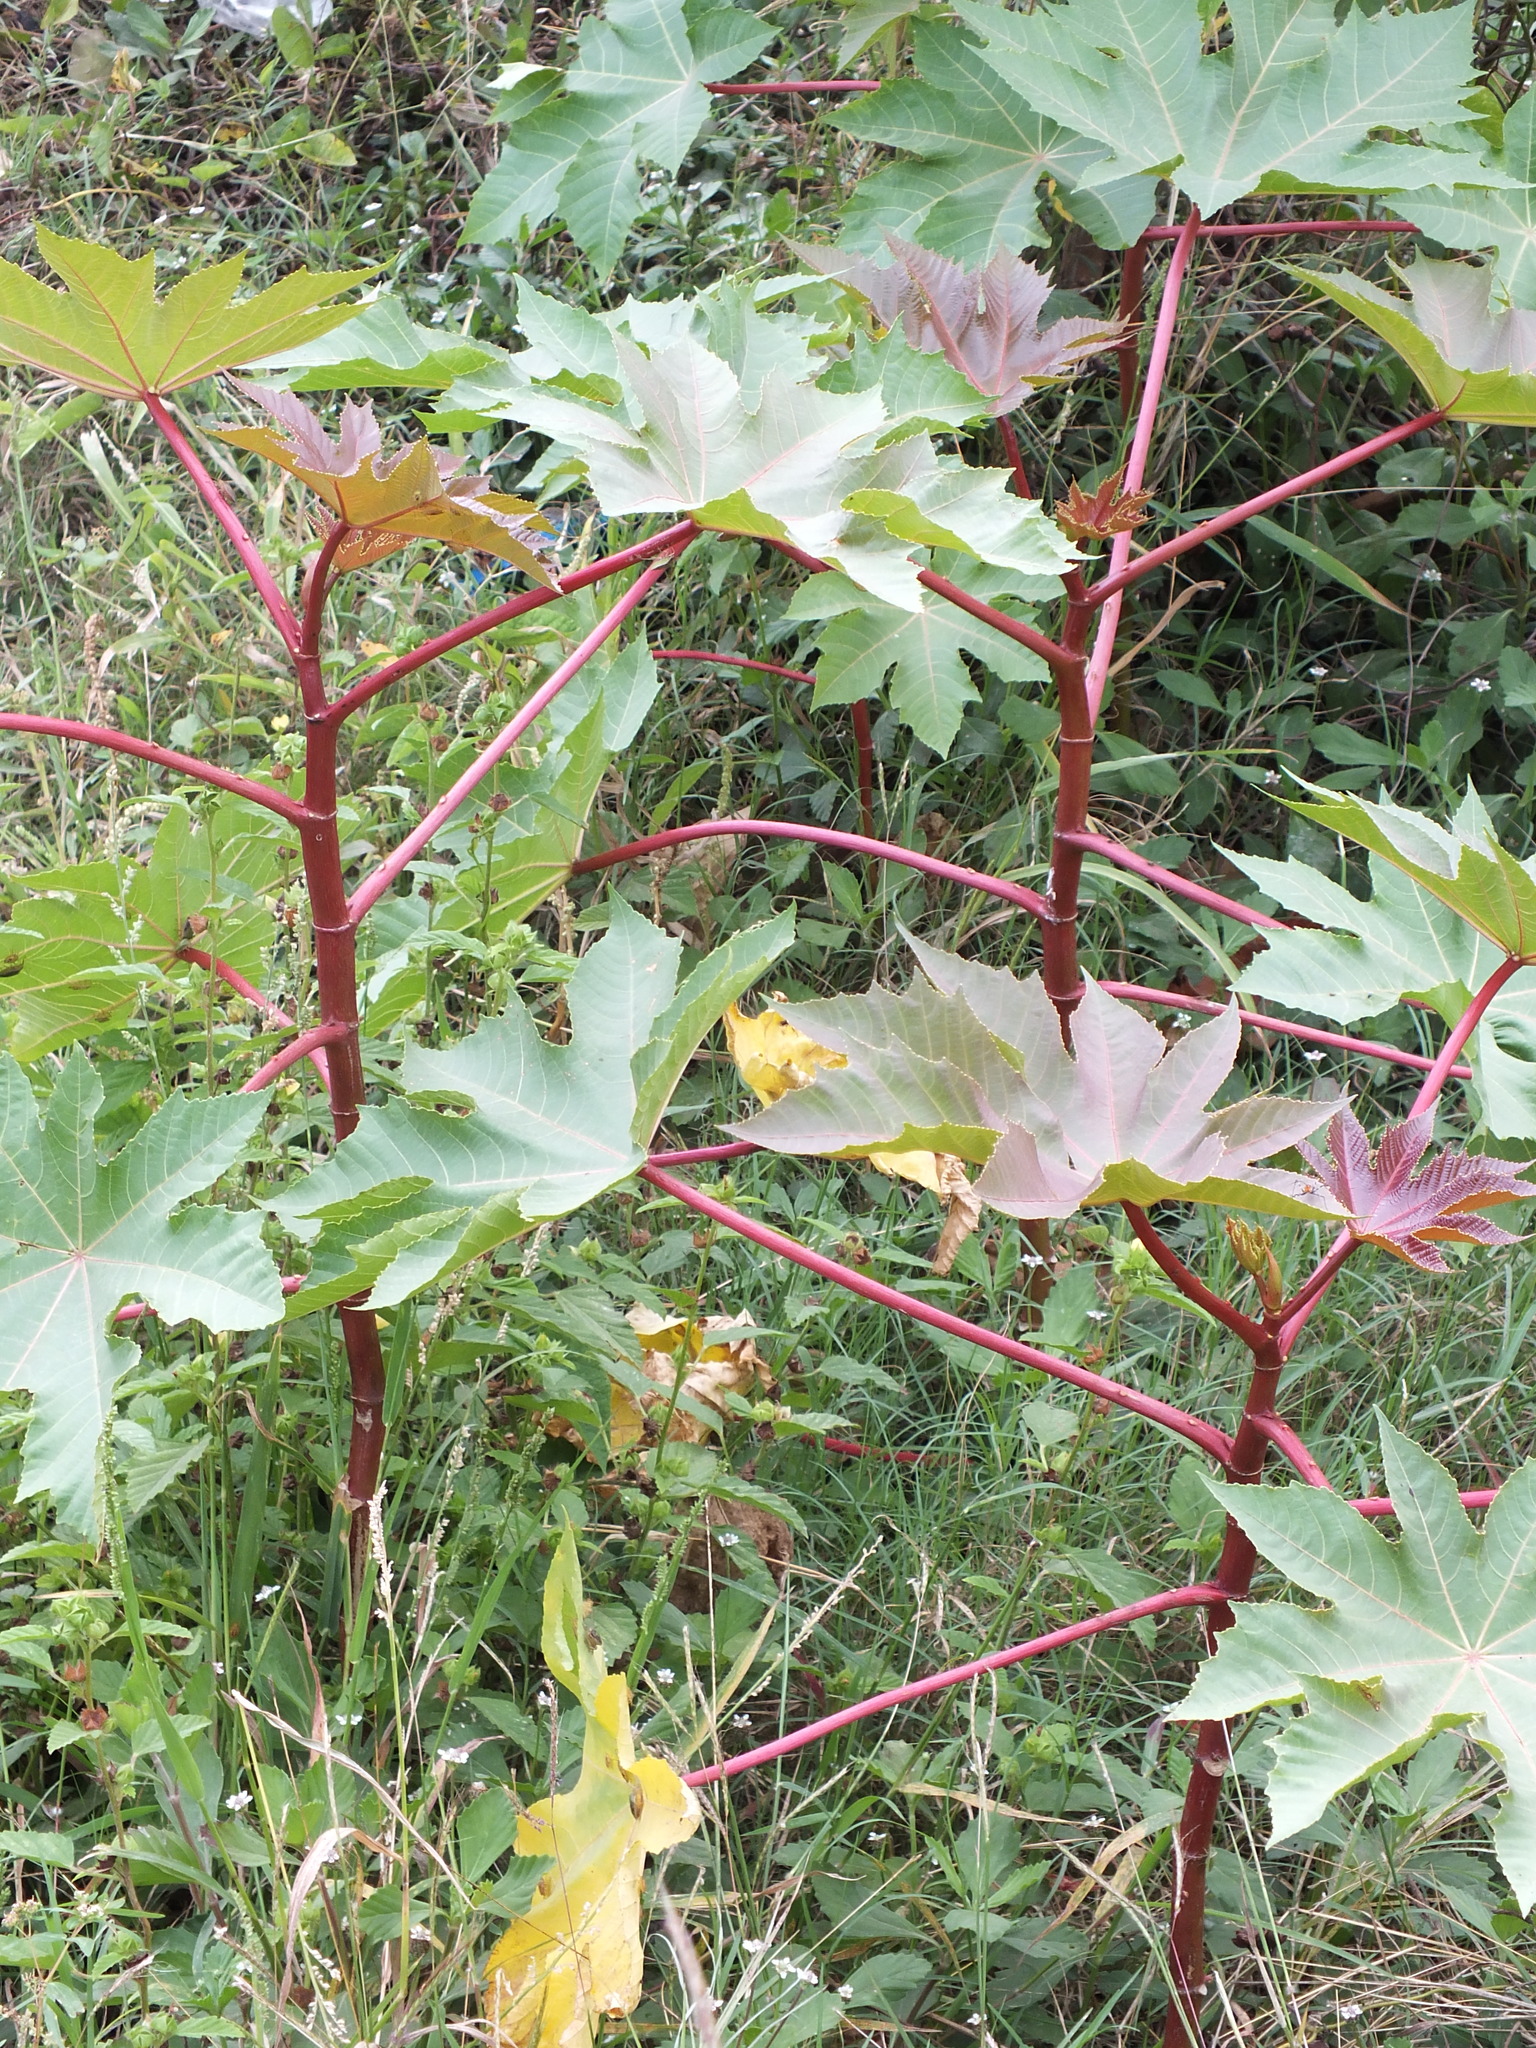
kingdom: Plantae
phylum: Tracheophyta
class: Magnoliopsida
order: Malpighiales
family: Euphorbiaceae
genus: Ricinus
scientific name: Ricinus communis
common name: Castor-oil-plant
